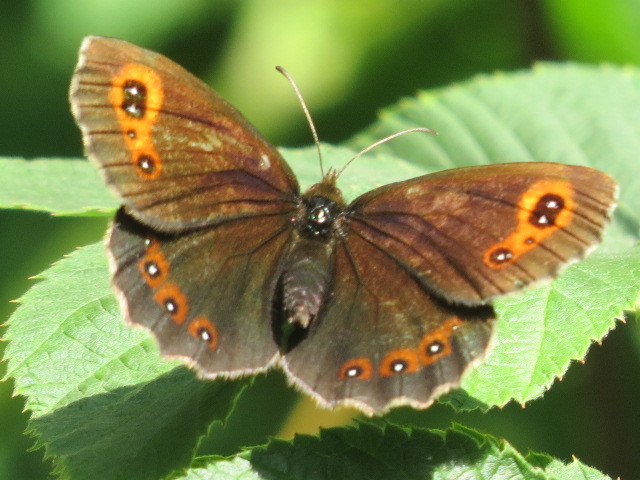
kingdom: Animalia
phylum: Arthropoda
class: Insecta
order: Lepidoptera
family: Nymphalidae
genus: Erebia
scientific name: Erebia aethiops
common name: Scotch argus
